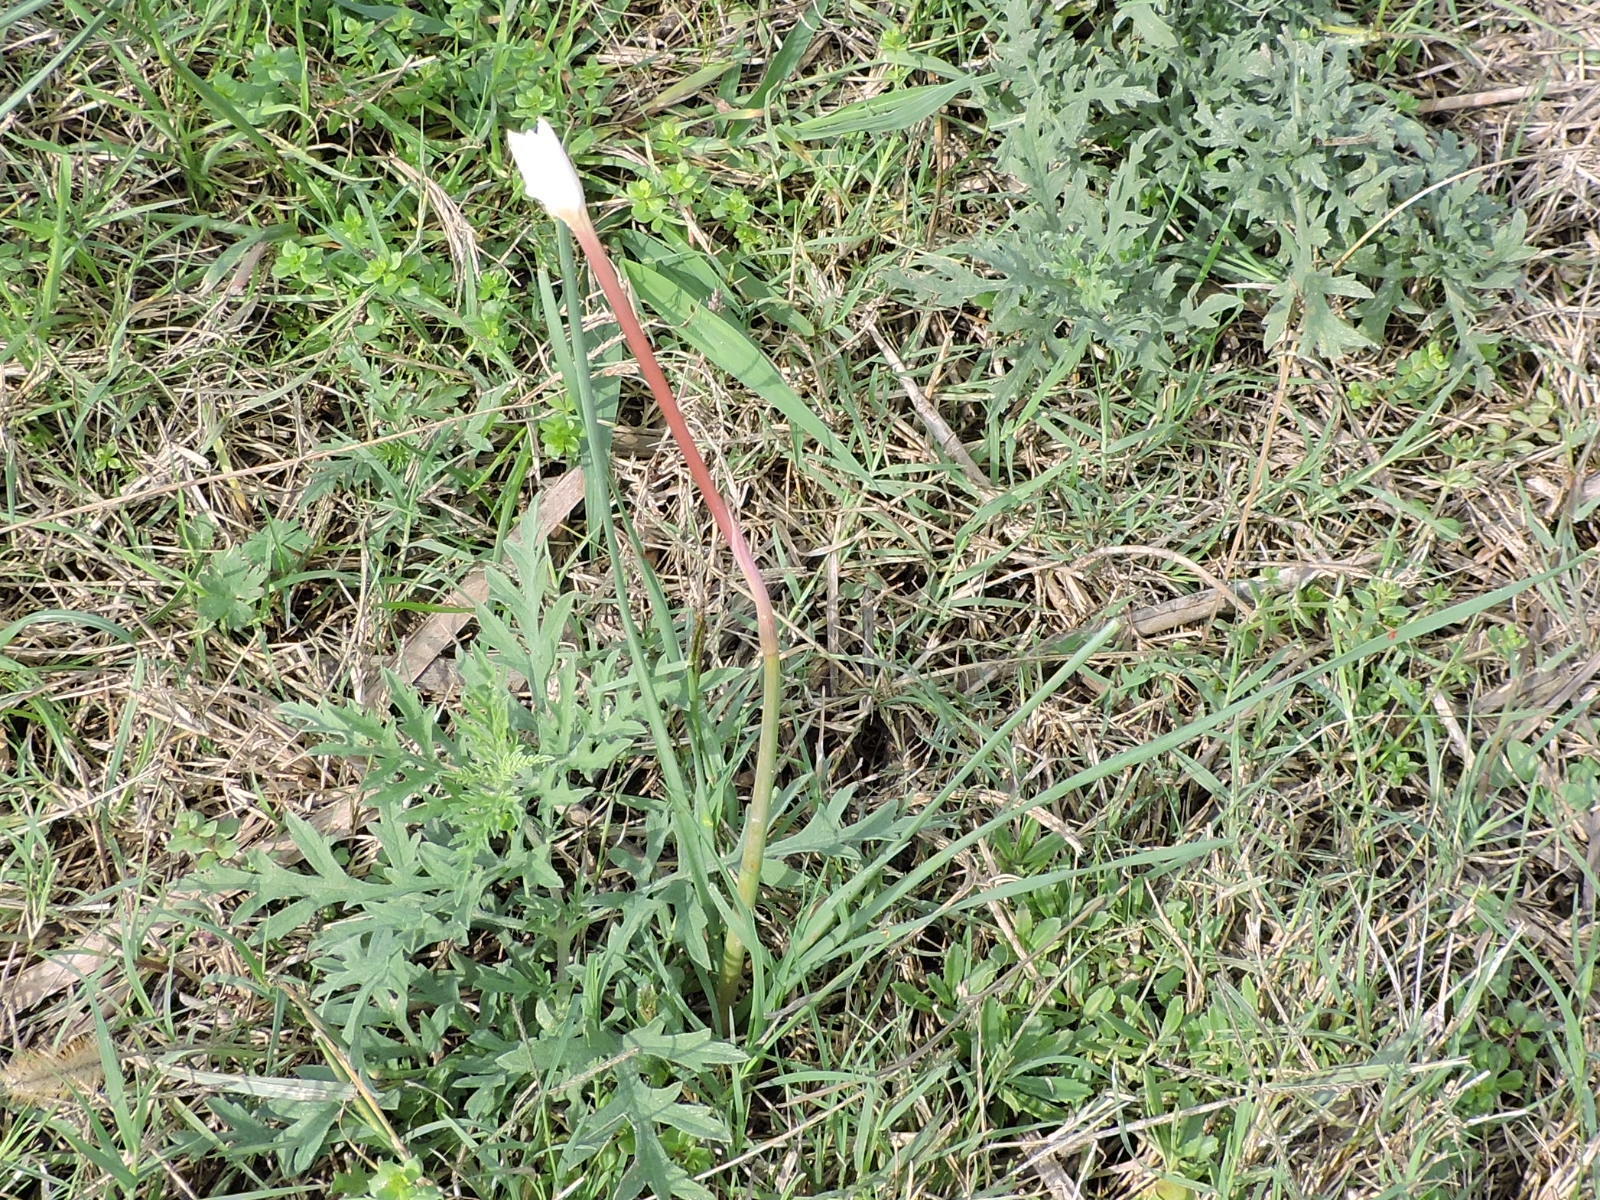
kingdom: Plantae
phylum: Tracheophyta
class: Liliopsida
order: Asparagales
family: Amaryllidaceae
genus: Zephyranthes
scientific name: Zephyranthes chlorosolen
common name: Evening rain-lily
